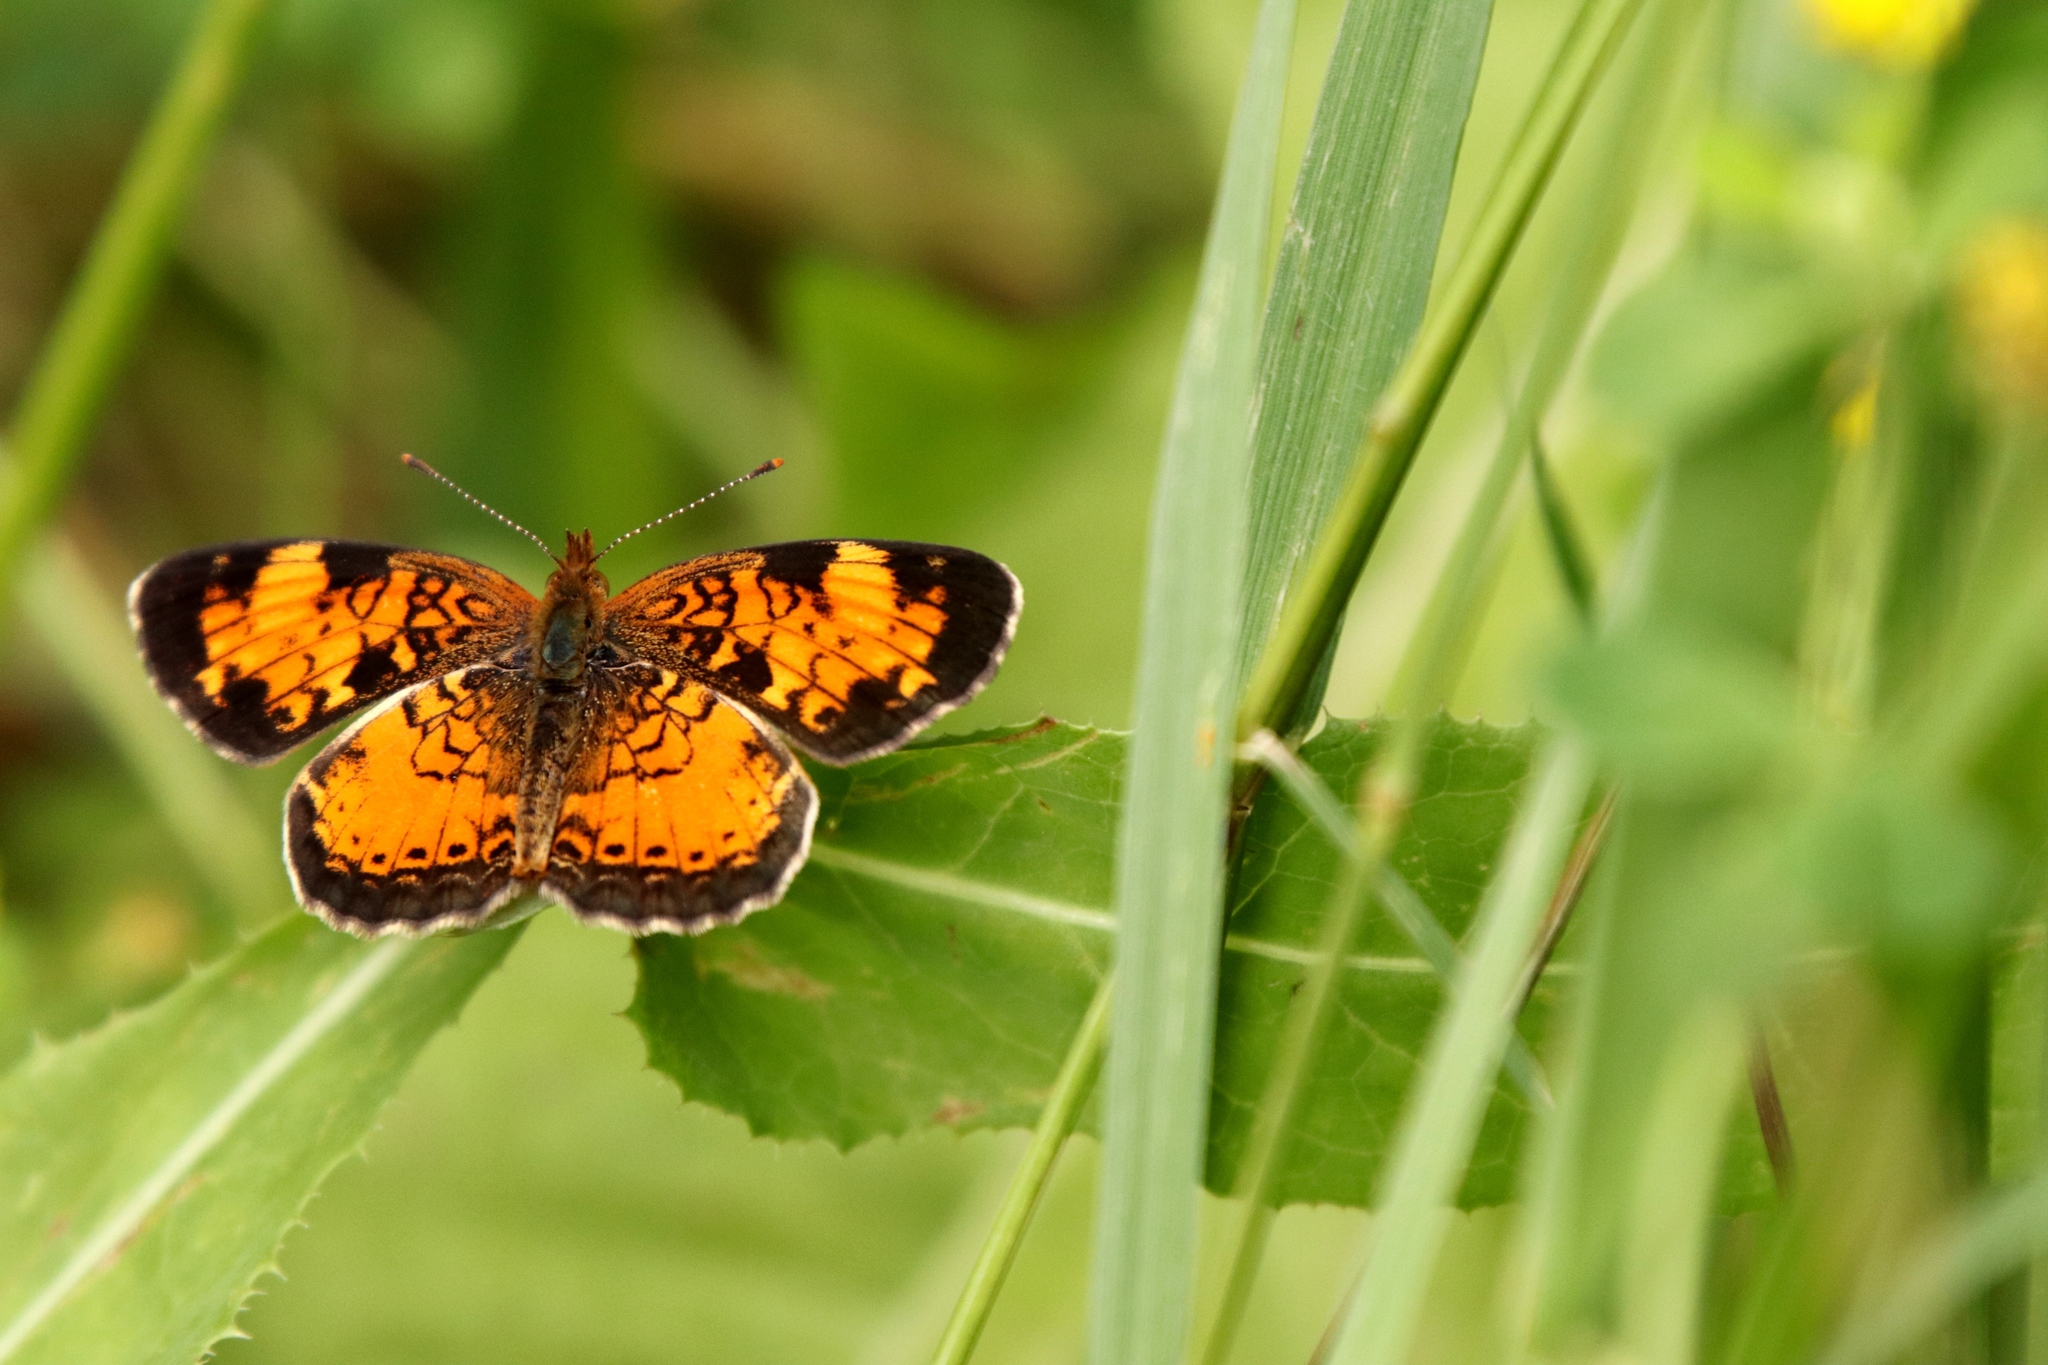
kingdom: Animalia
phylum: Arthropoda
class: Insecta
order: Lepidoptera
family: Nymphalidae
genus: Phyciodes
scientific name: Phyciodes tharos
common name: Pearl crescent
